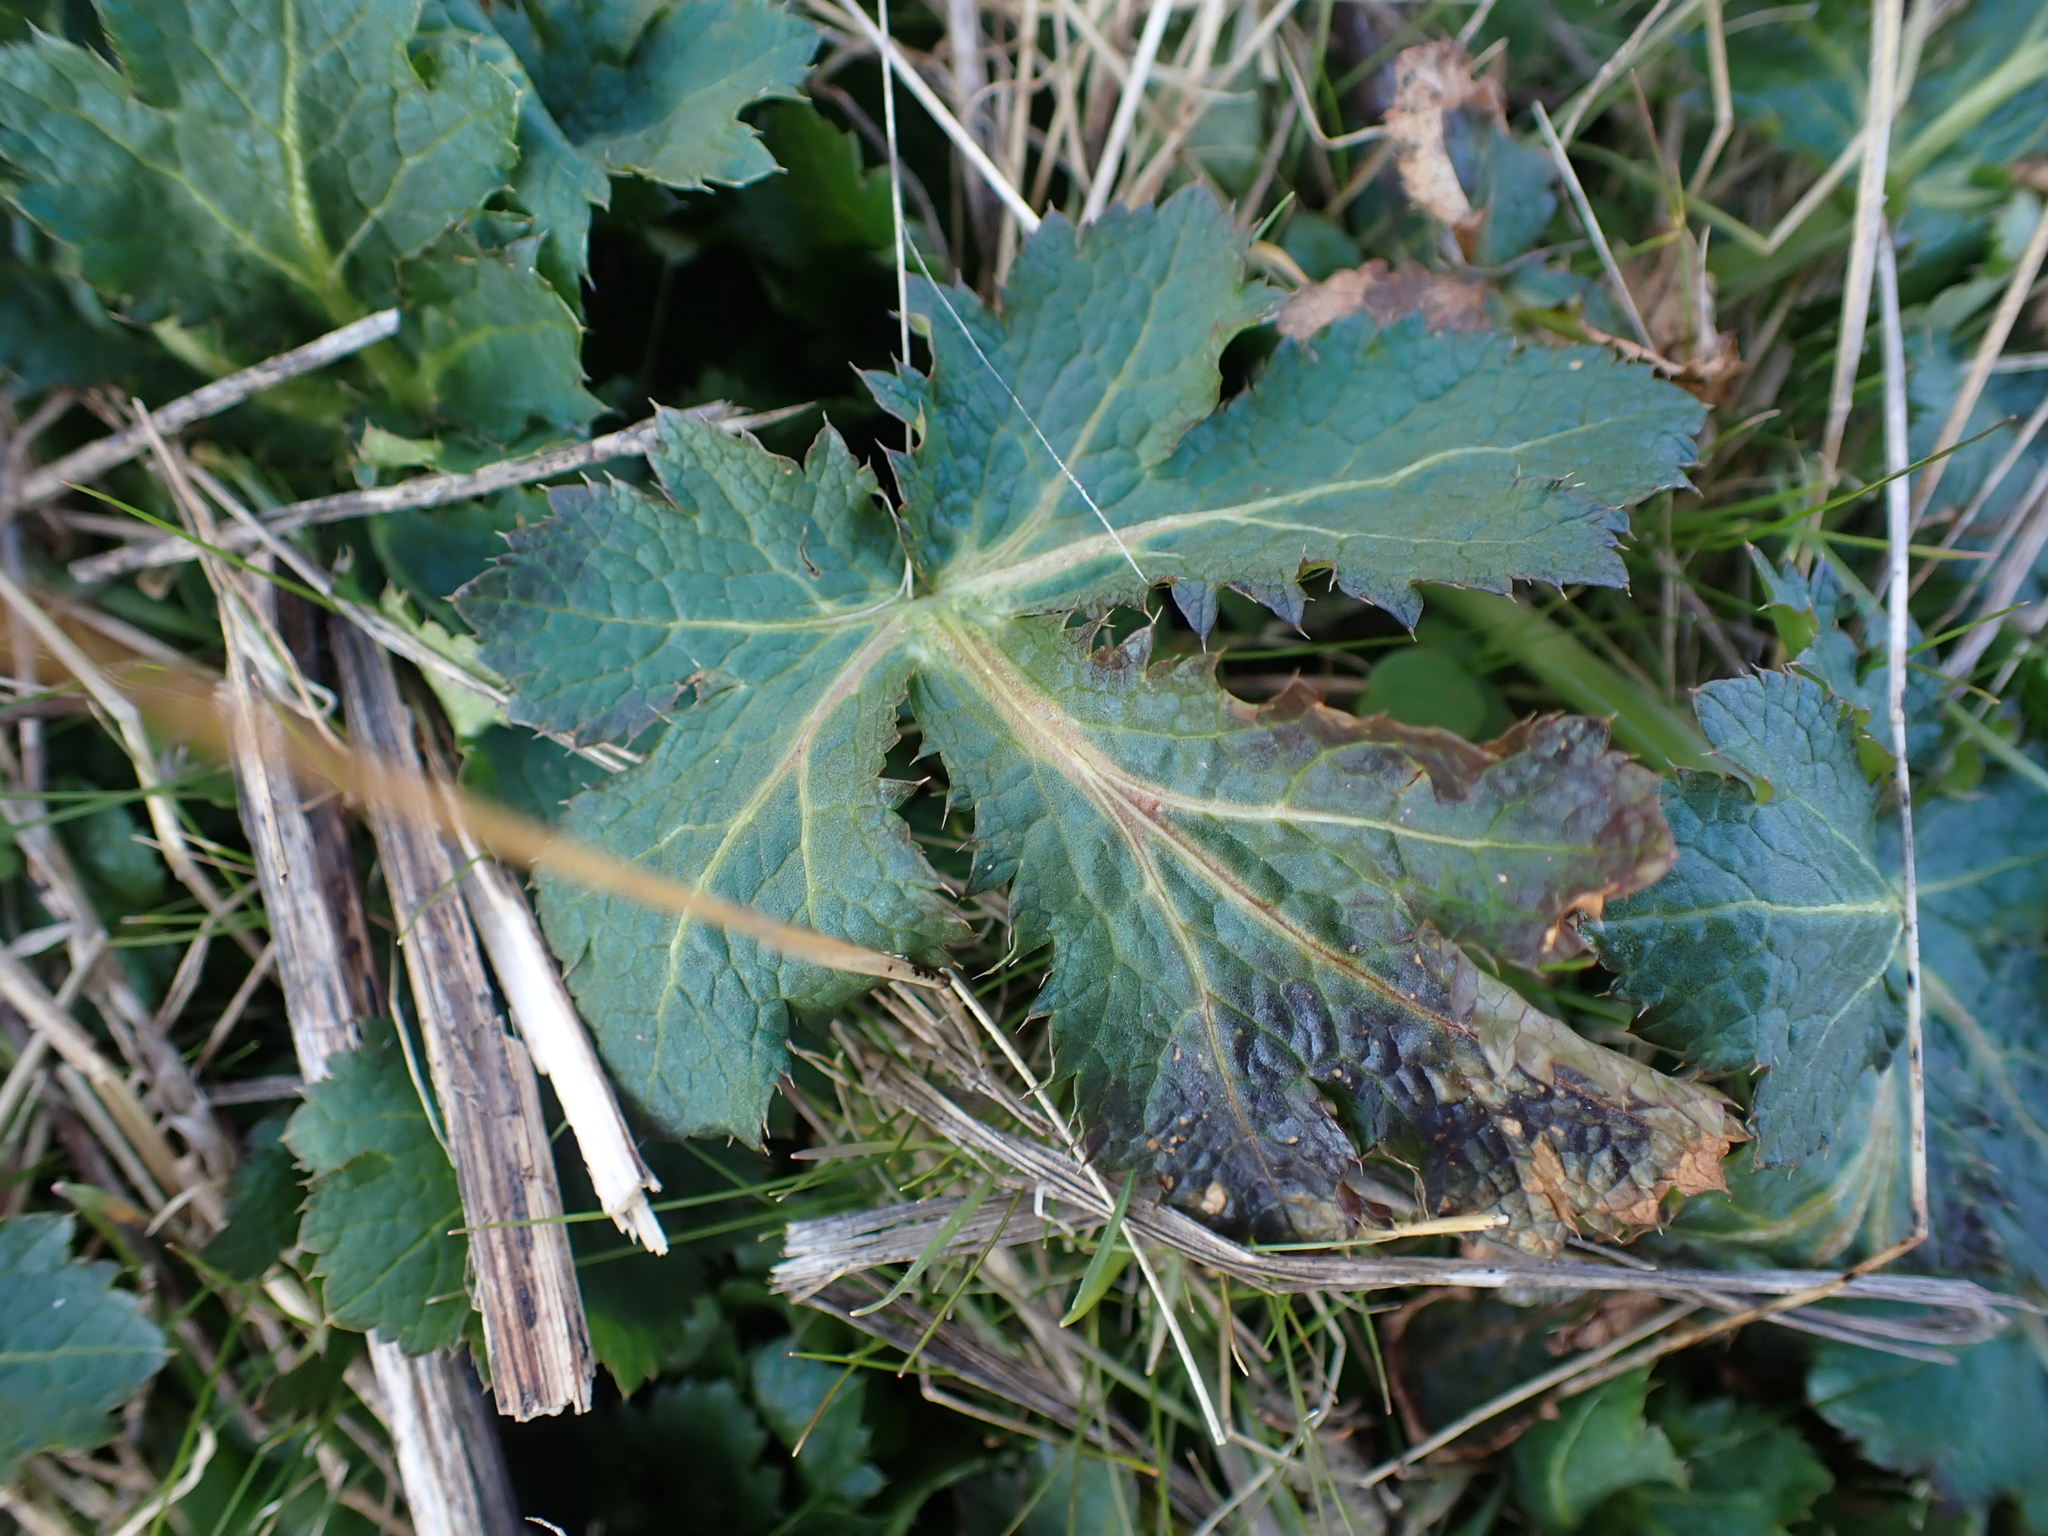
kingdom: Plantae
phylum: Tracheophyta
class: Magnoliopsida
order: Apiales
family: Apiaceae
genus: Sanicula
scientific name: Sanicula crassicaulis
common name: Western snakeroot
